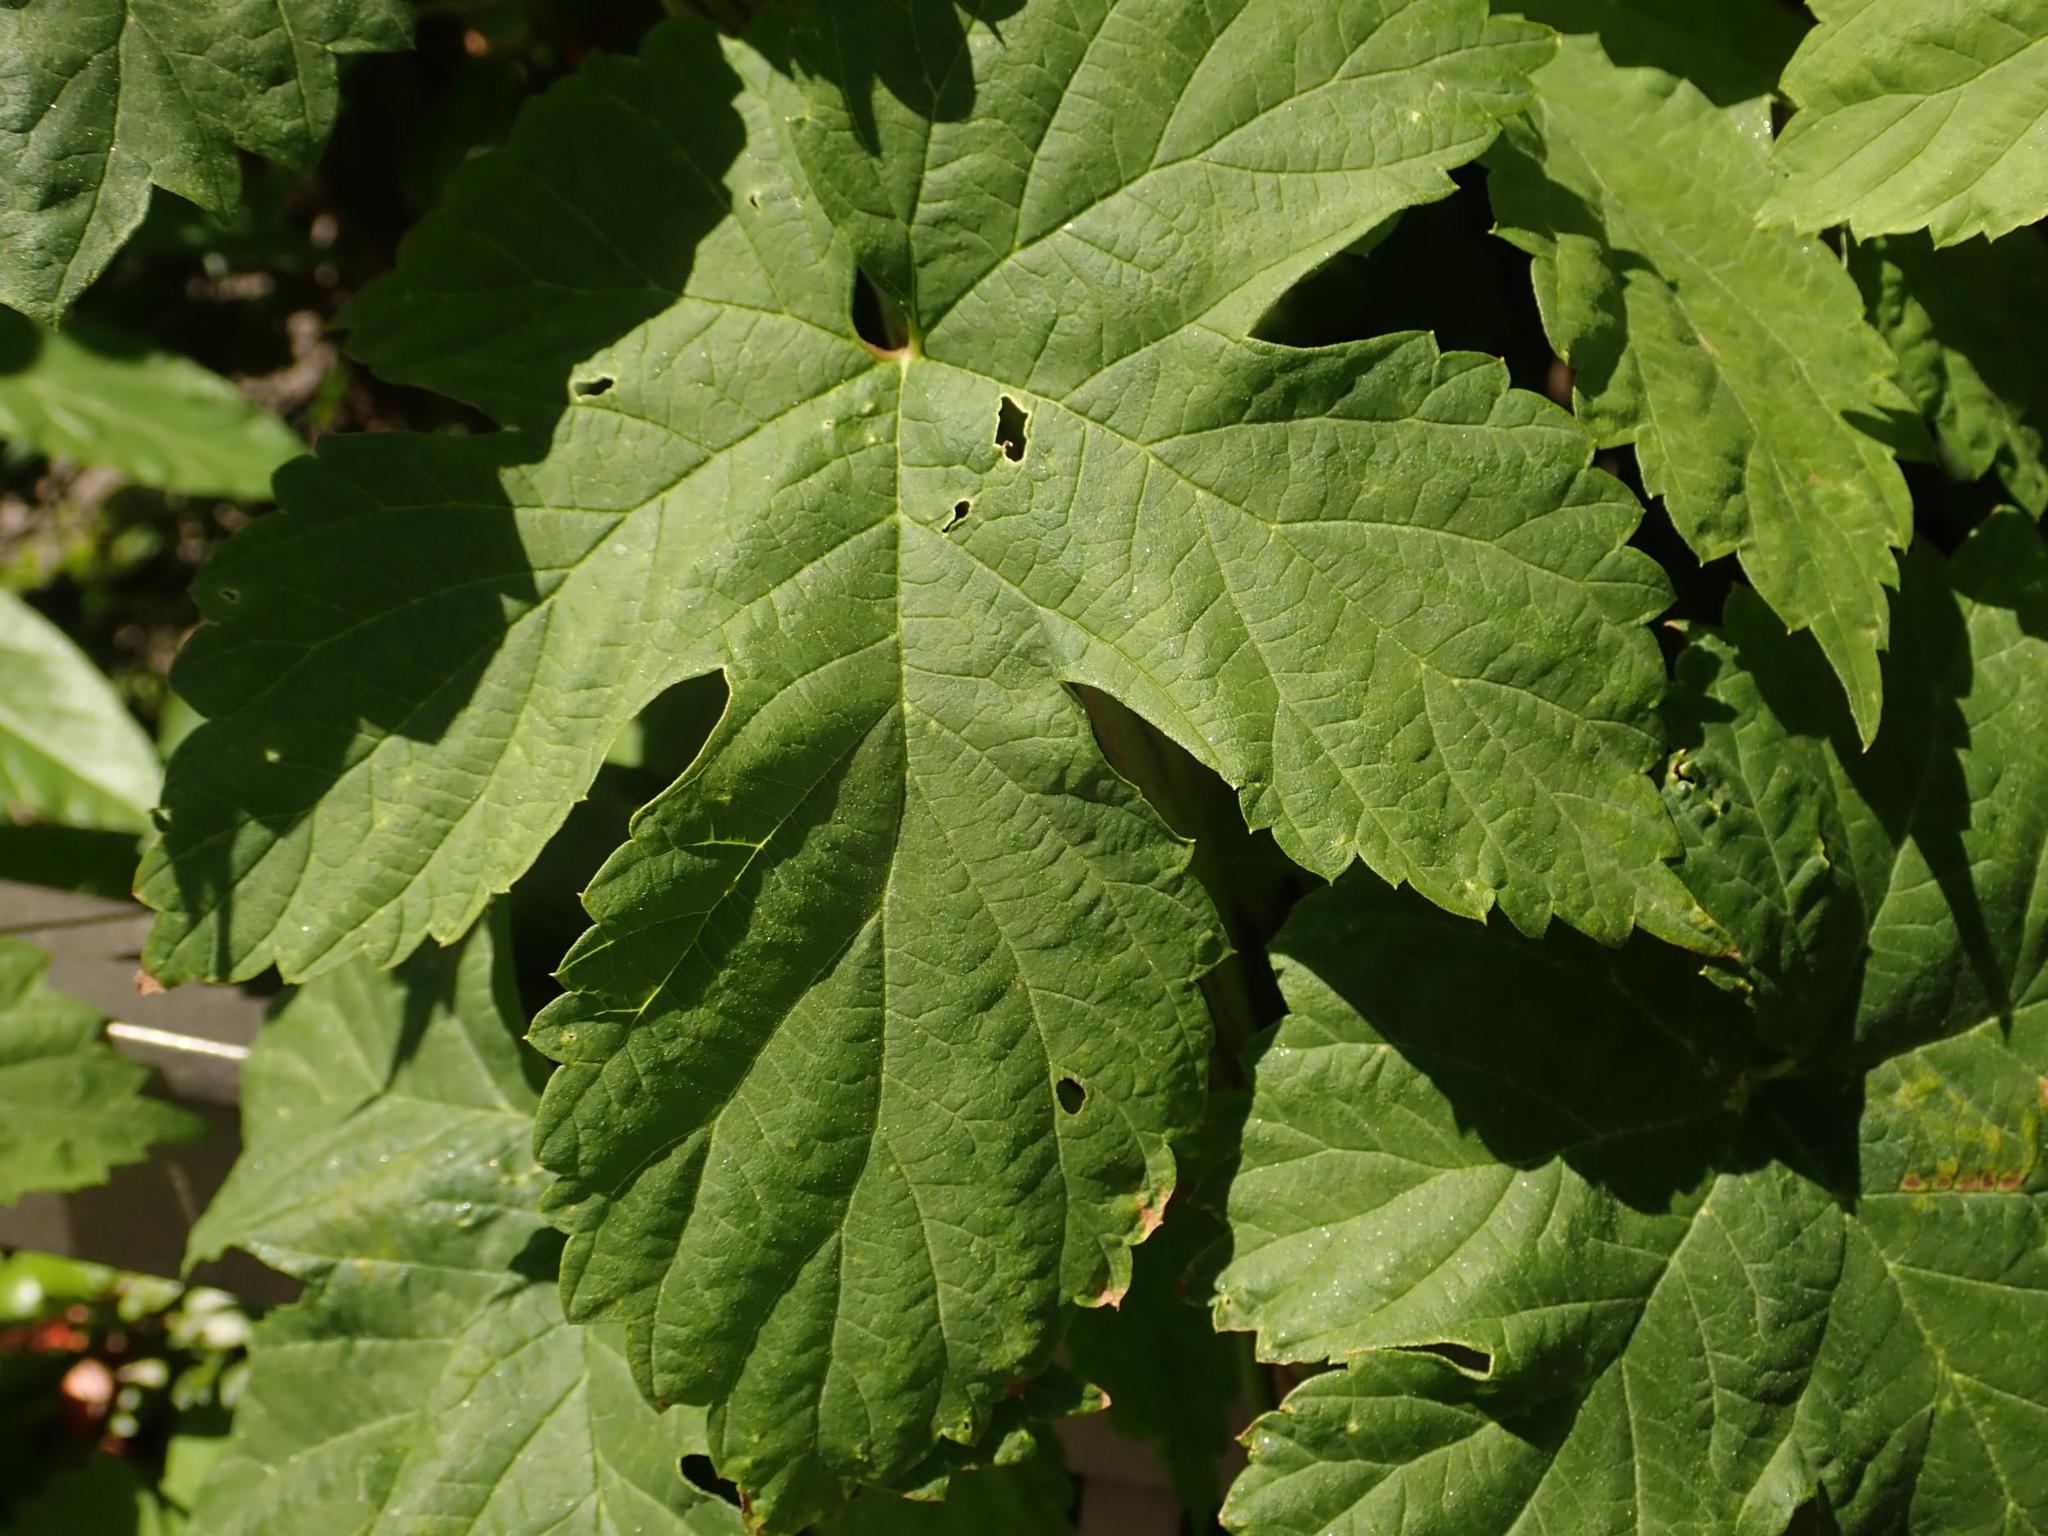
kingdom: Plantae
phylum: Tracheophyta
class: Magnoliopsida
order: Rosales
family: Cannabaceae
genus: Humulus
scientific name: Humulus lupulus
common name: Hop
